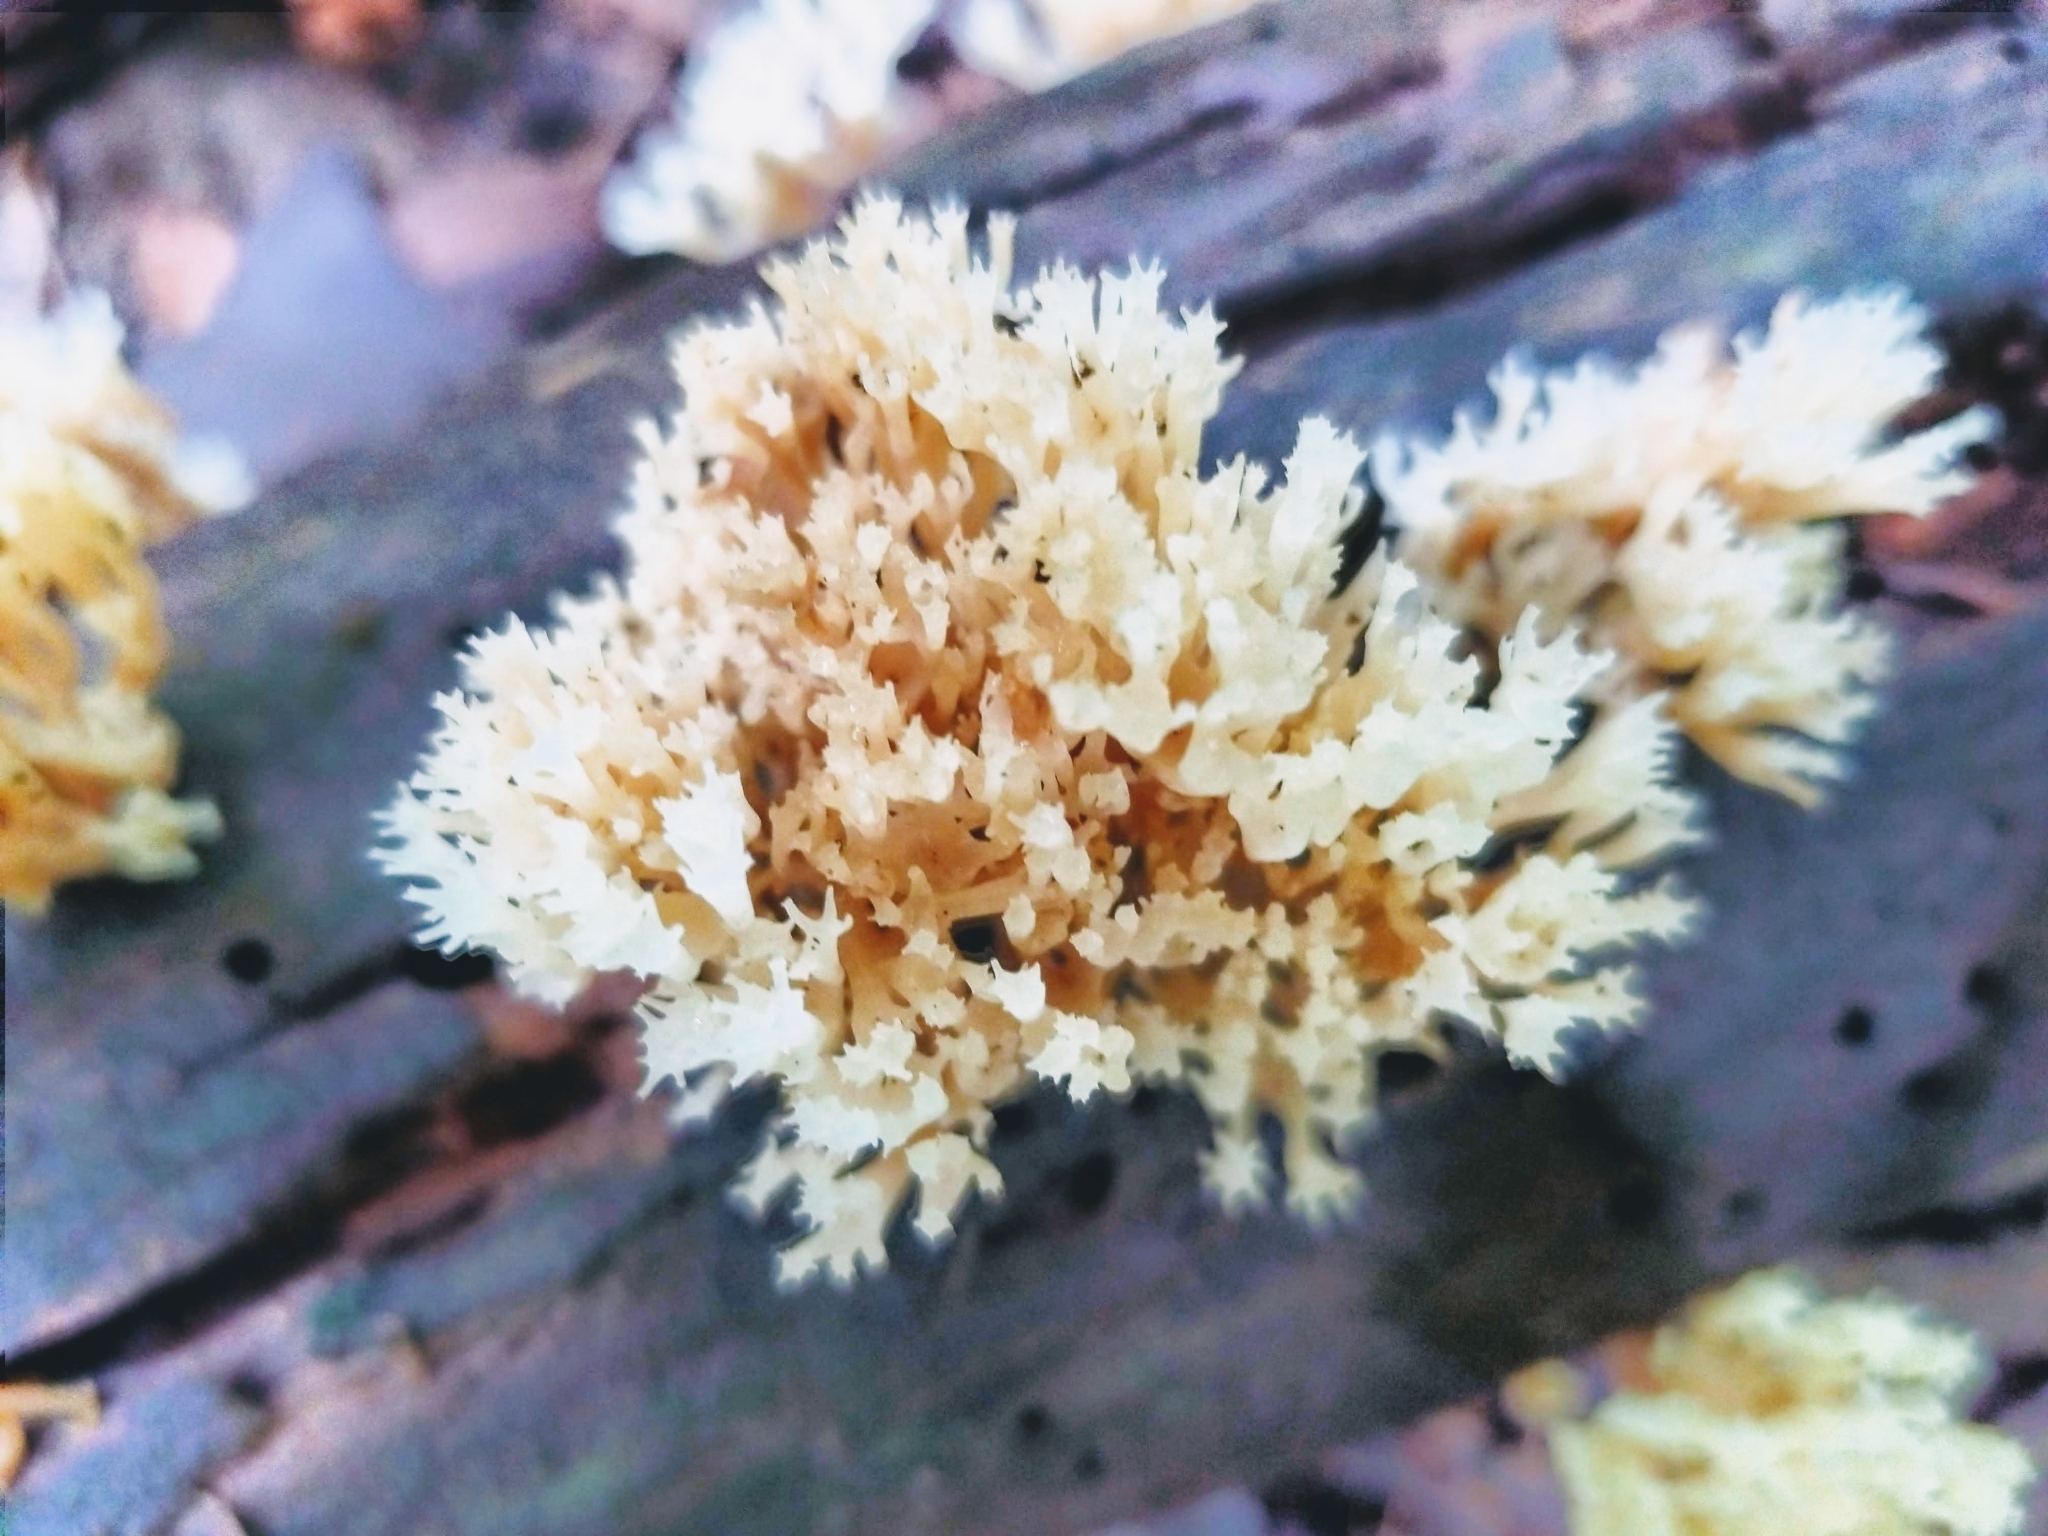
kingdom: Fungi
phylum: Basidiomycota
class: Agaricomycetes
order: Russulales
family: Auriscalpiaceae
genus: Artomyces
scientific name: Artomyces pyxidatus
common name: Crown-tipped coral fungus
